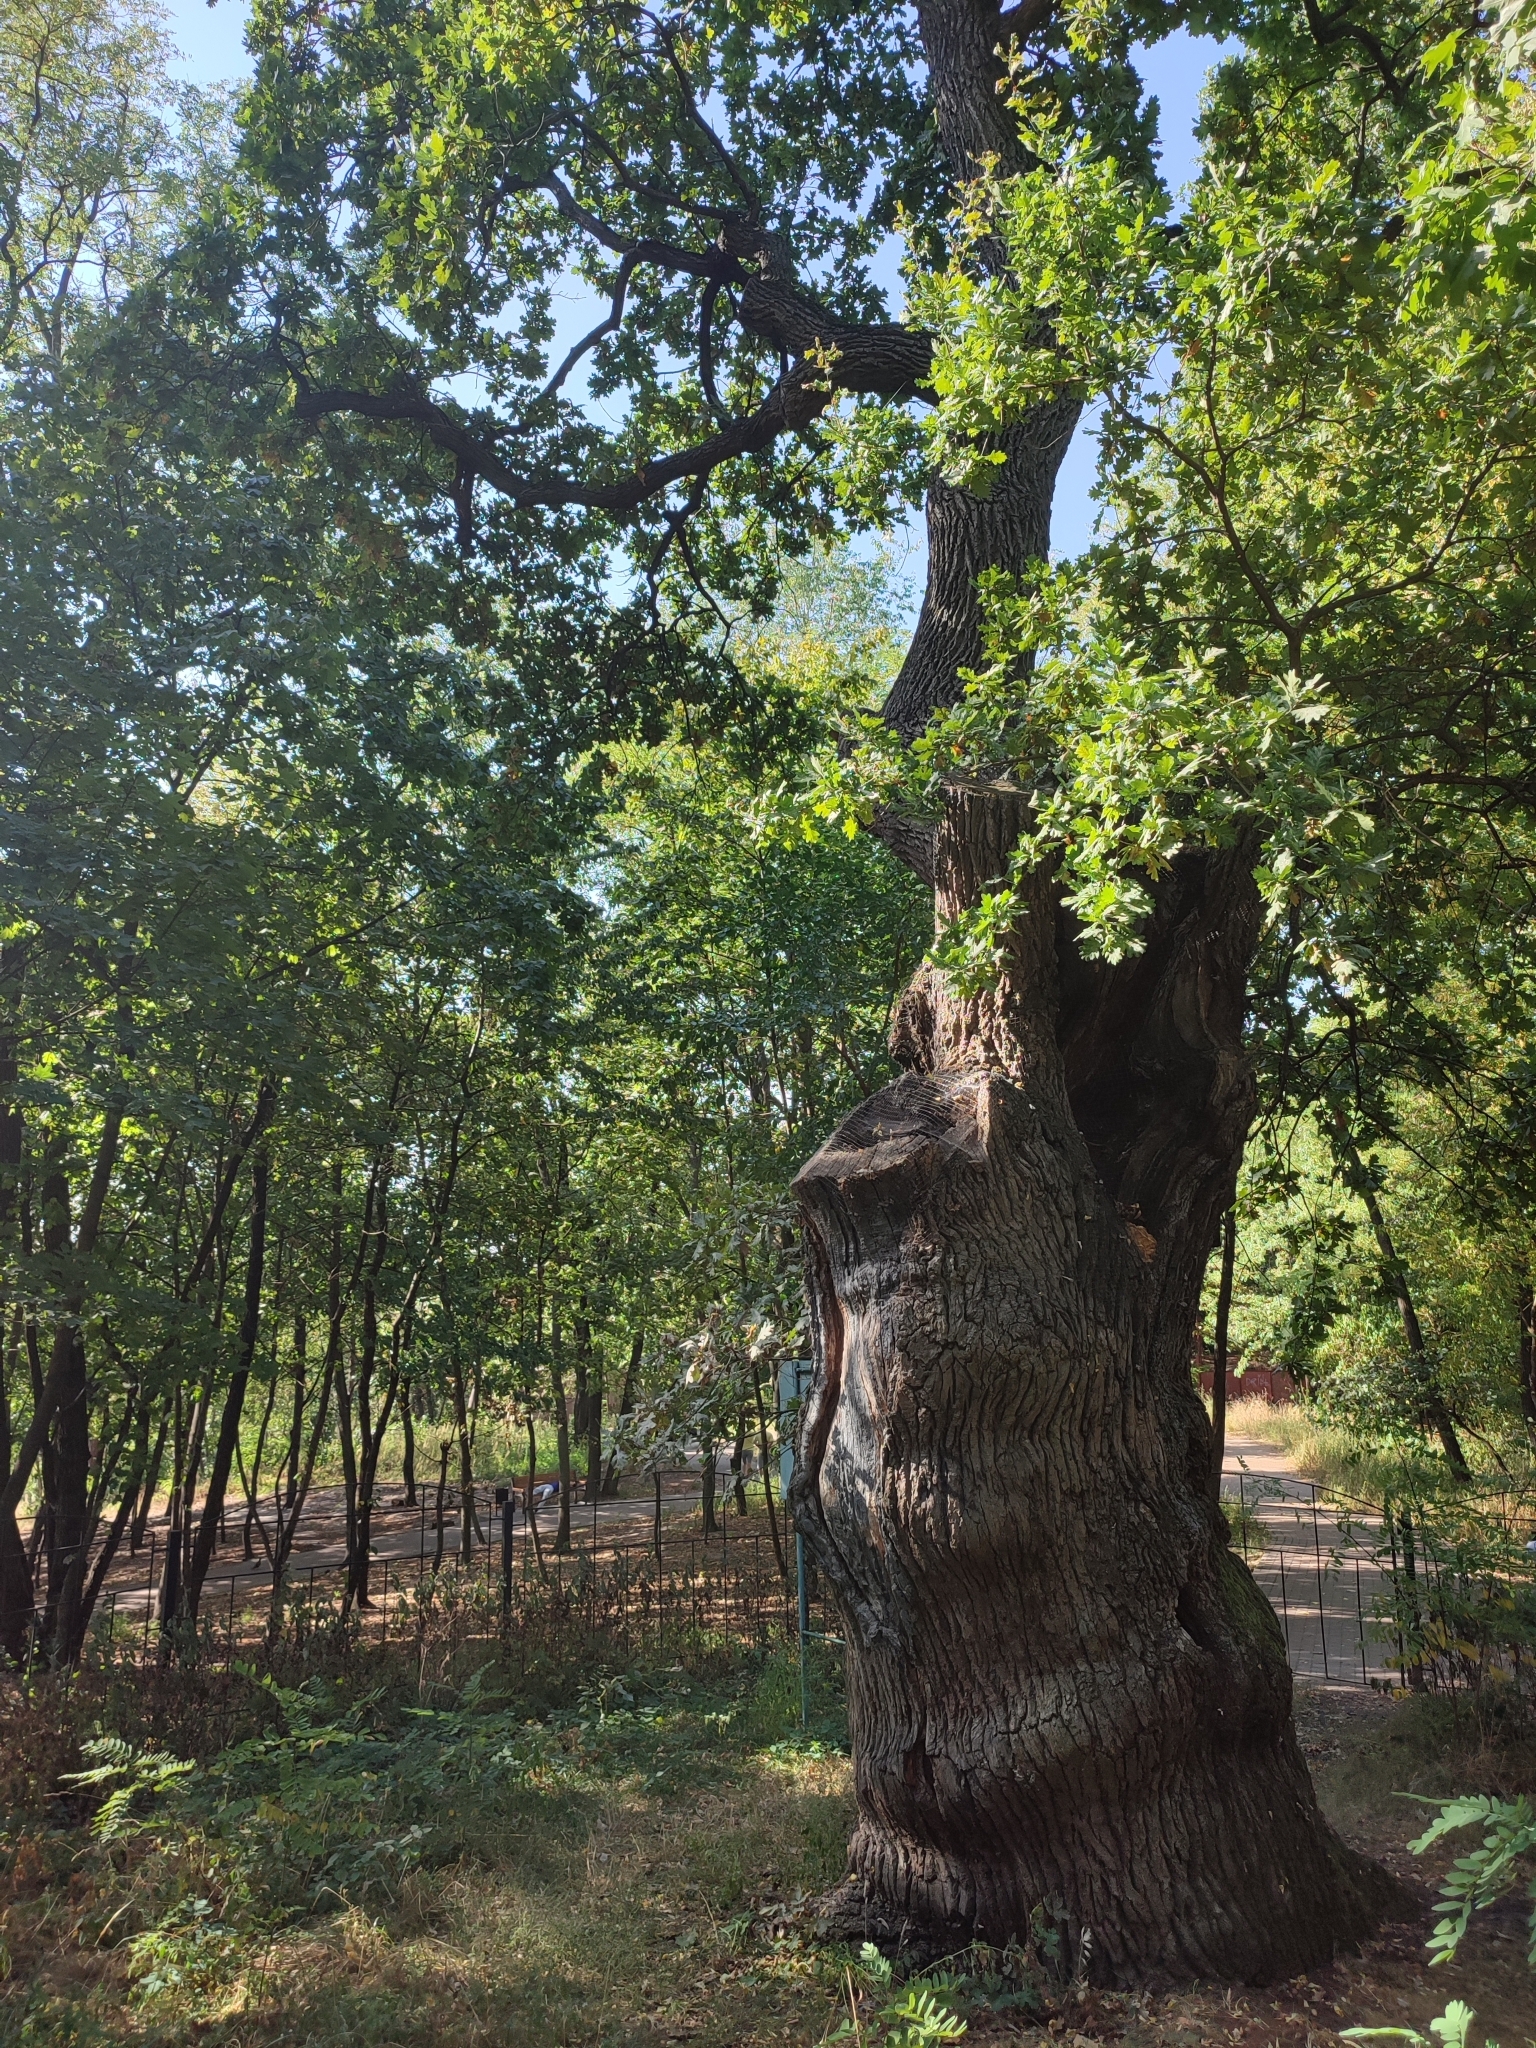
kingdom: Plantae
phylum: Tracheophyta
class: Magnoliopsida
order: Fagales
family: Fagaceae
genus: Quercus
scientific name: Quercus robur
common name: Pedunculate oak
